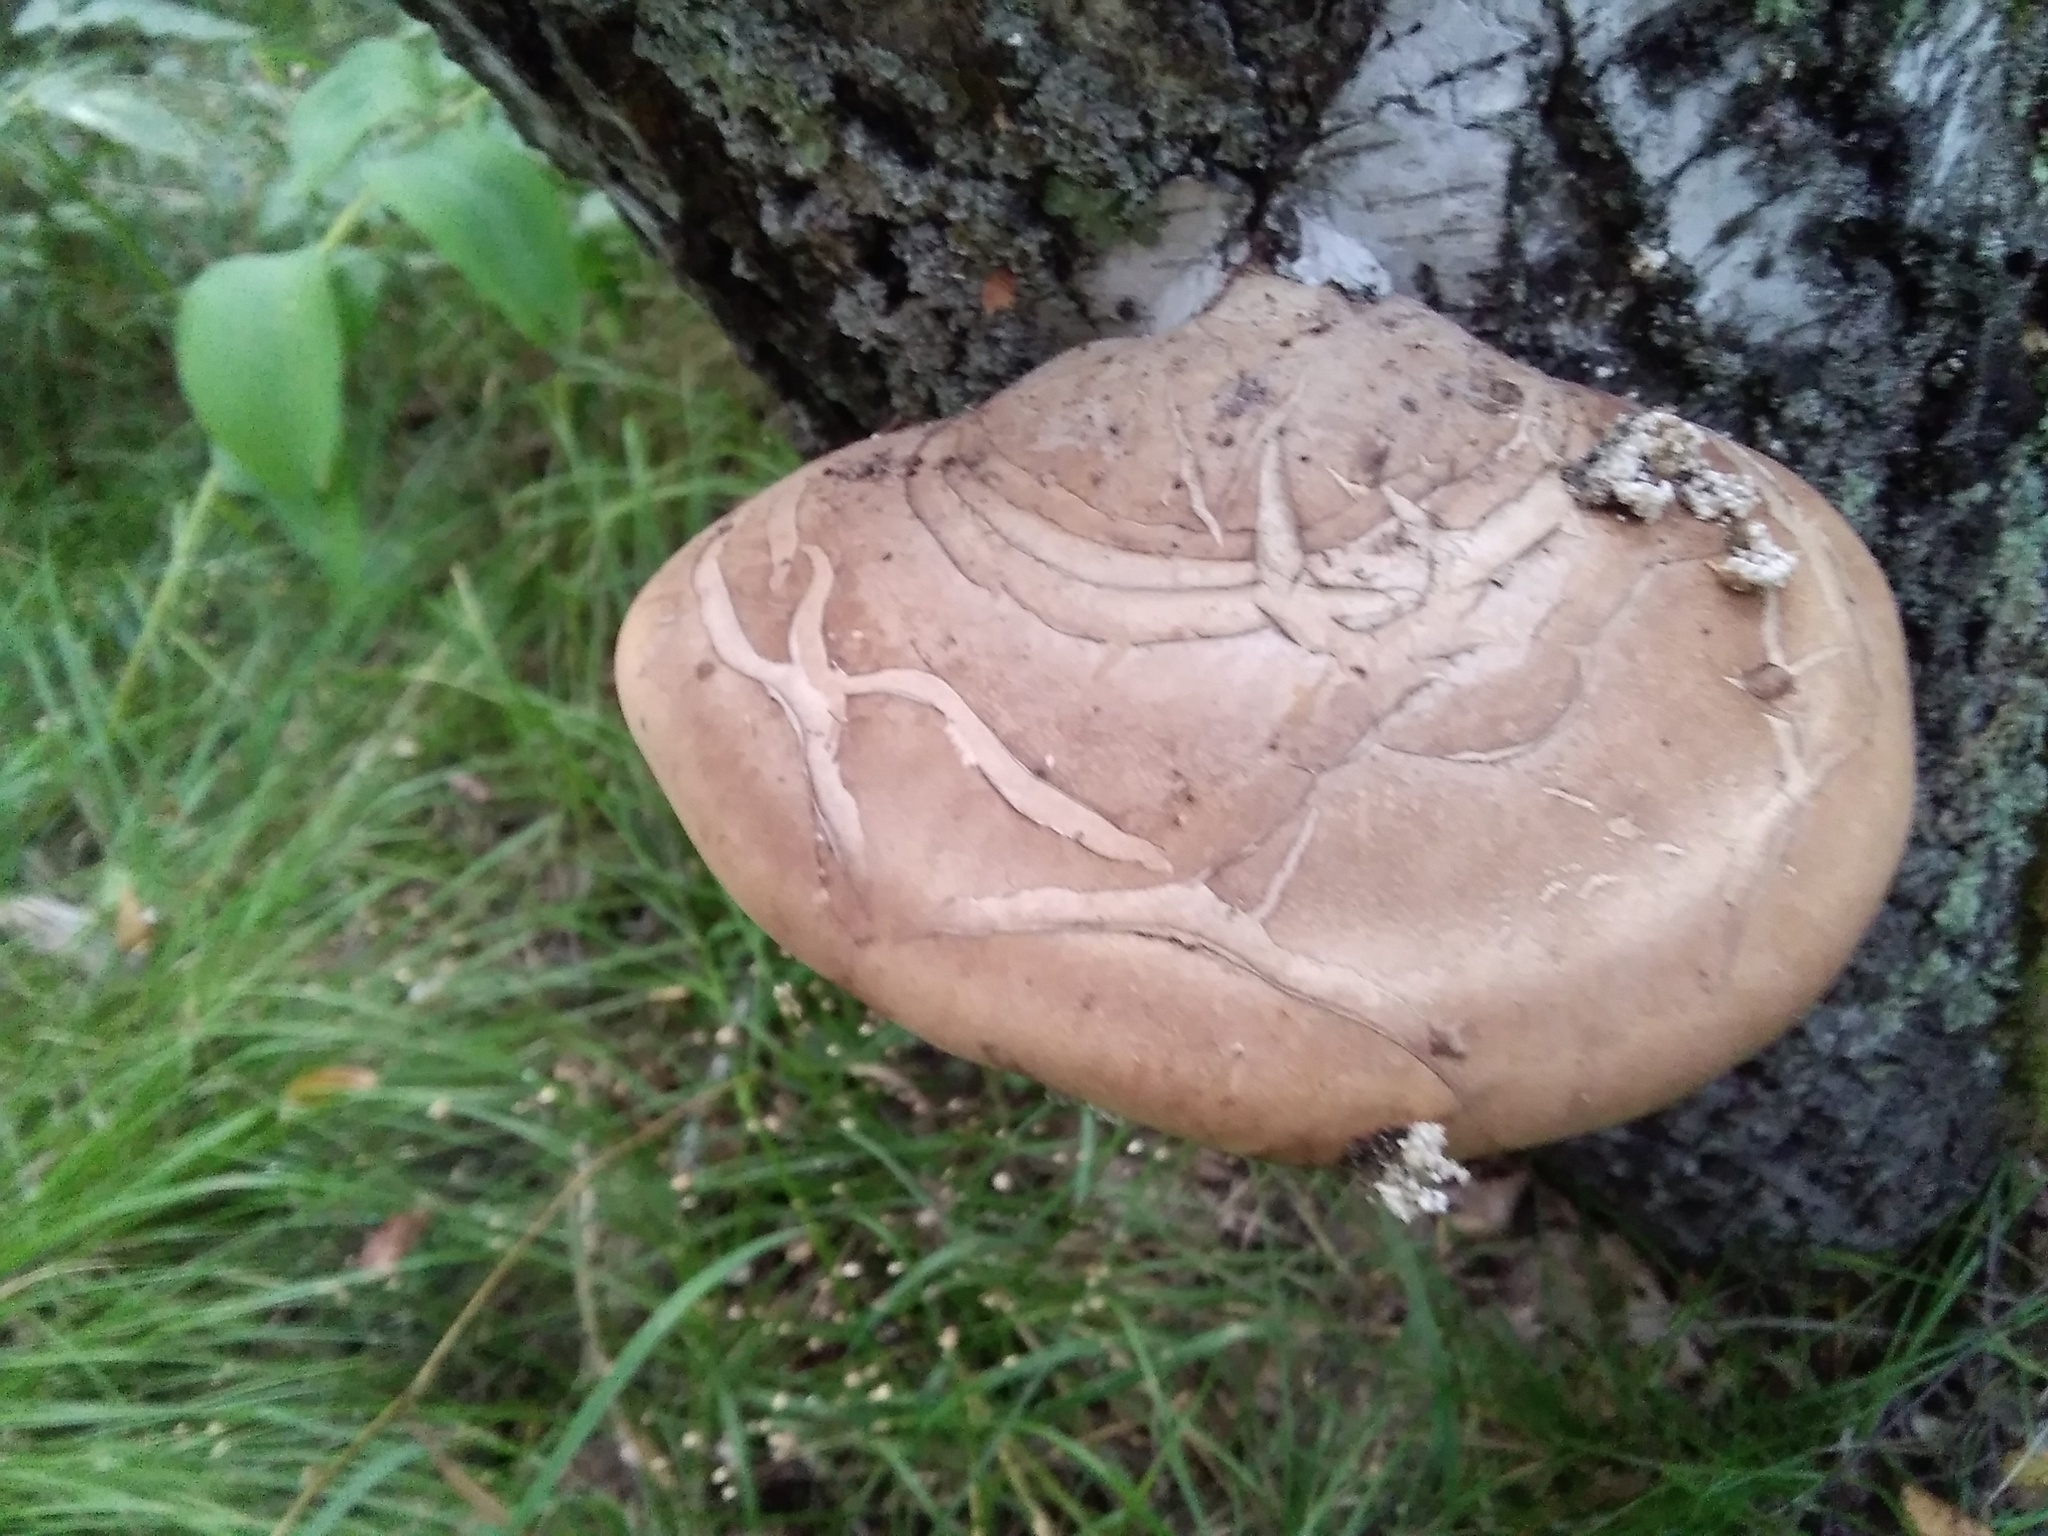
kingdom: Fungi
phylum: Basidiomycota
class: Agaricomycetes
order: Polyporales
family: Fomitopsidaceae
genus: Fomitopsis
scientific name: Fomitopsis betulina
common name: Birch polypore
